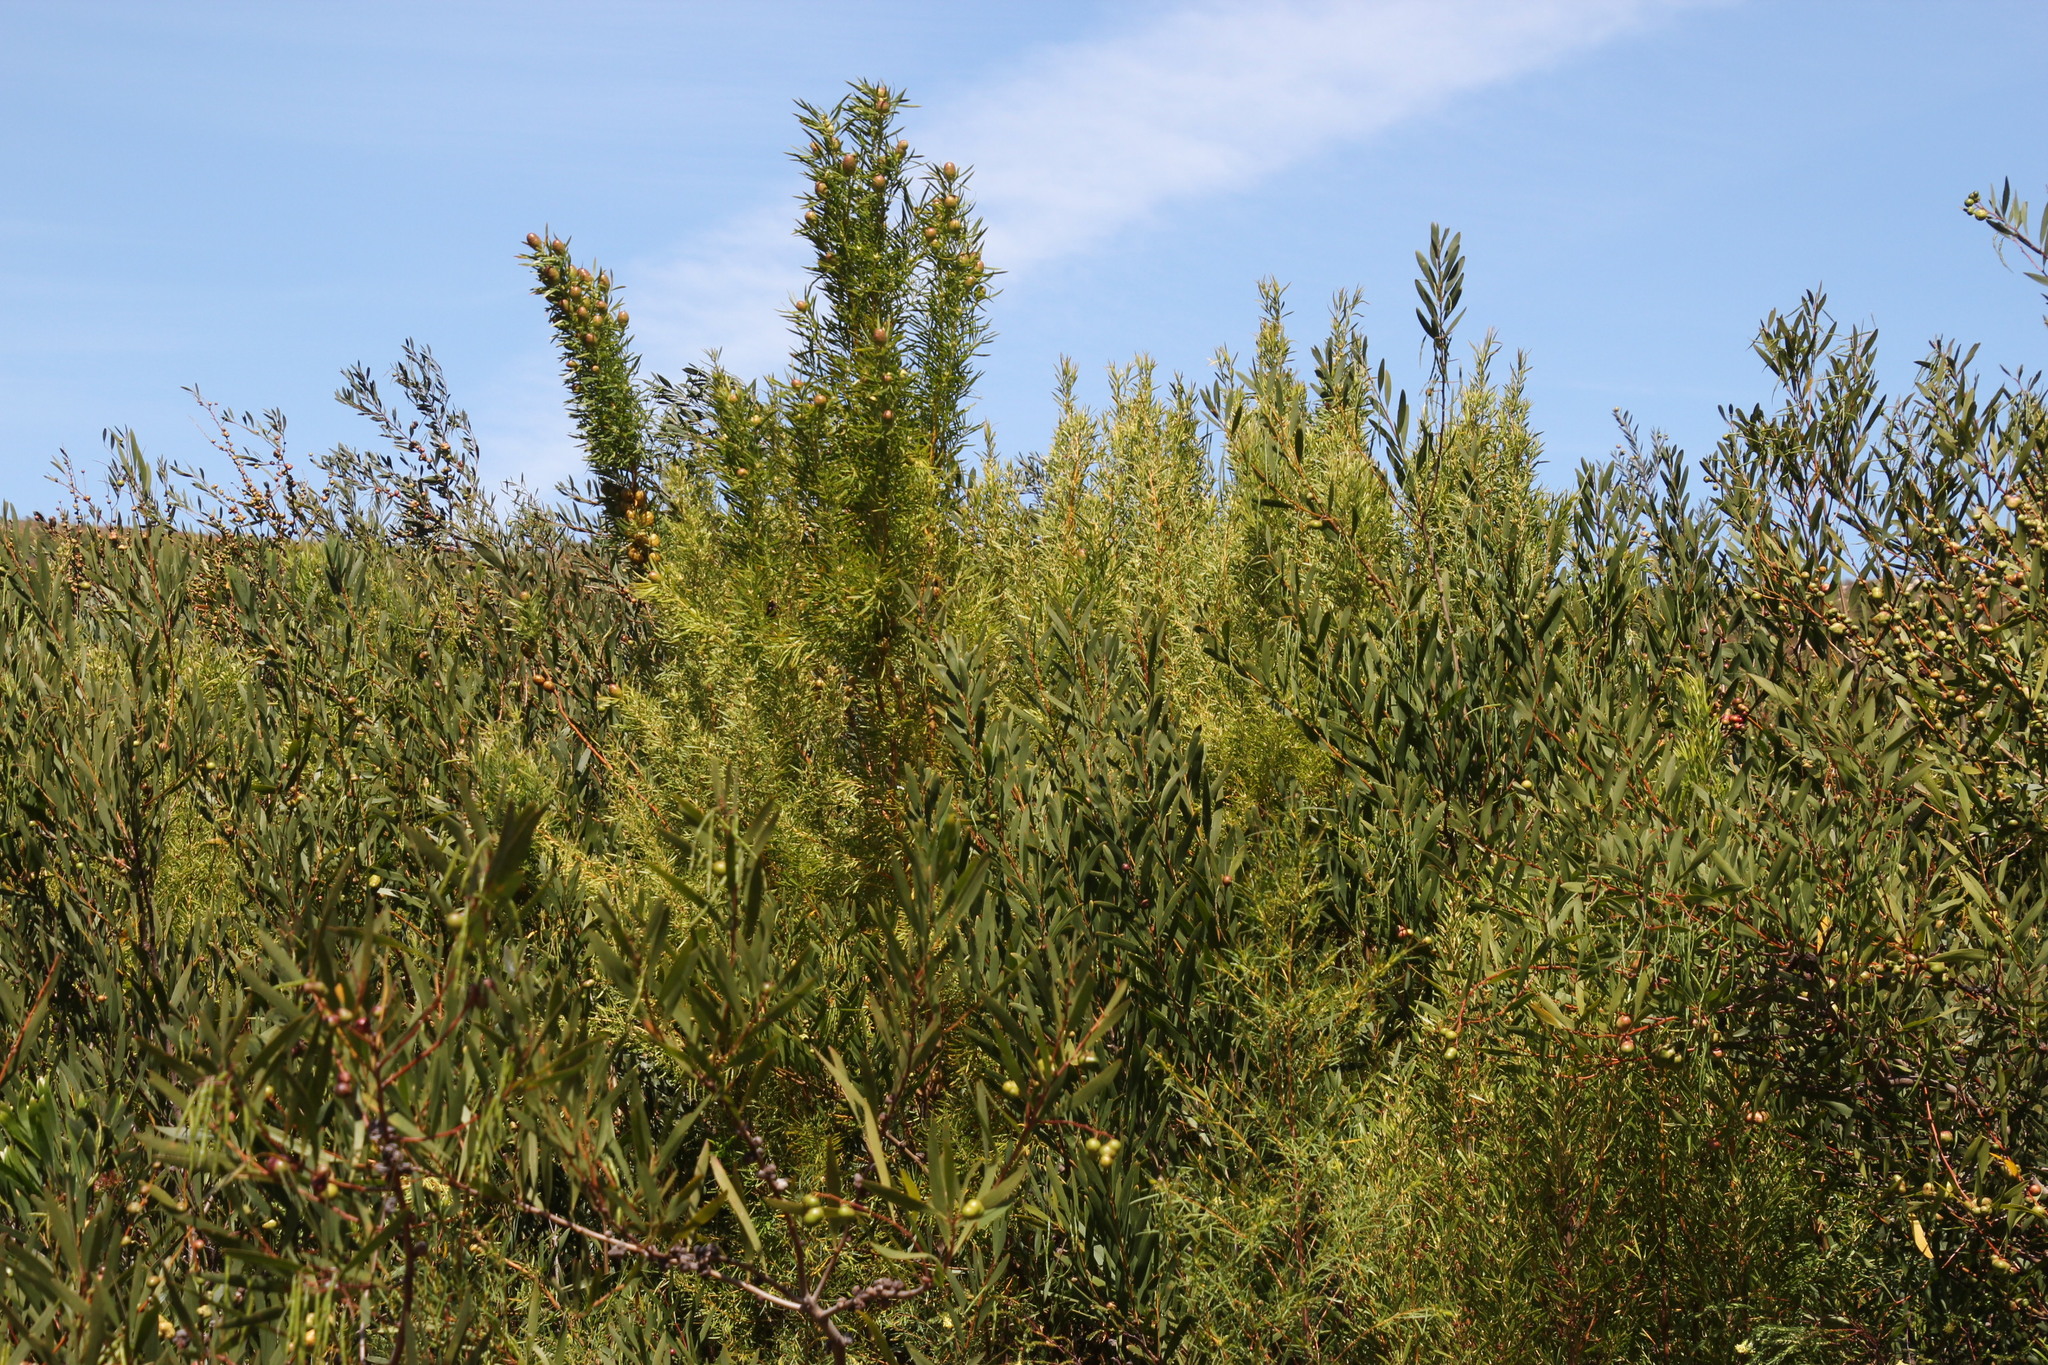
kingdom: Plantae
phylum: Tracheophyta
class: Magnoliopsida
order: Proteales
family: Proteaceae
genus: Leucadendron
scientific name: Leucadendron salicifolium
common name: Common stream conebush
